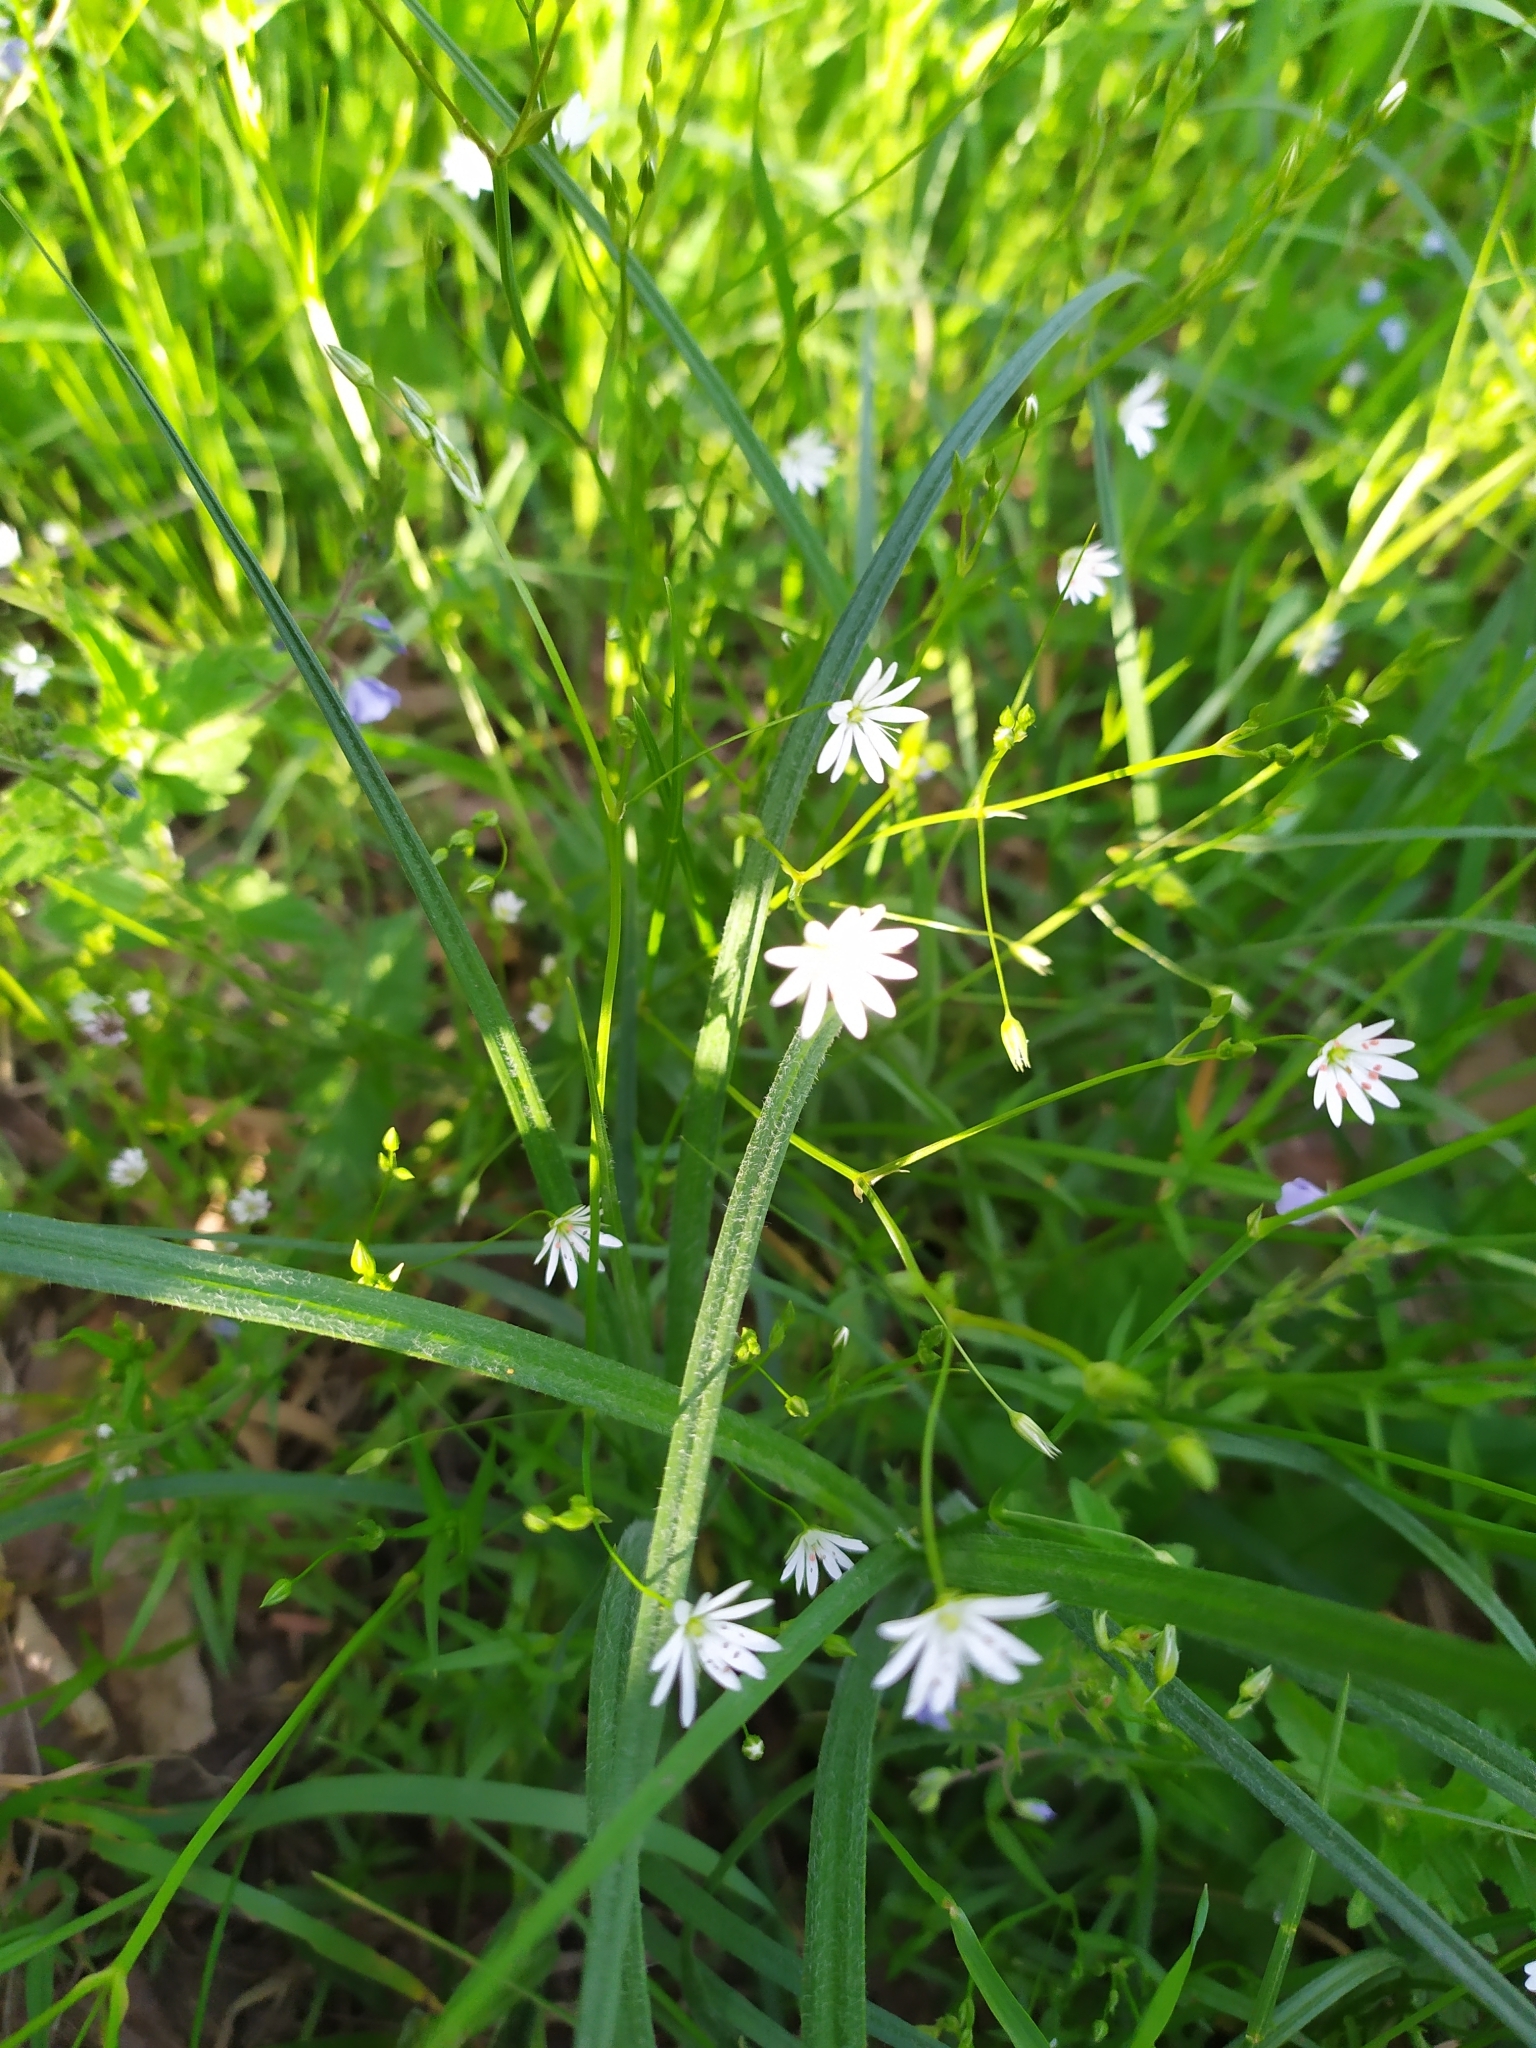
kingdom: Plantae
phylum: Tracheophyta
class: Magnoliopsida
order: Caryophyllales
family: Caryophyllaceae
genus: Stellaria
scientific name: Stellaria graminea
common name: Grass-like starwort
